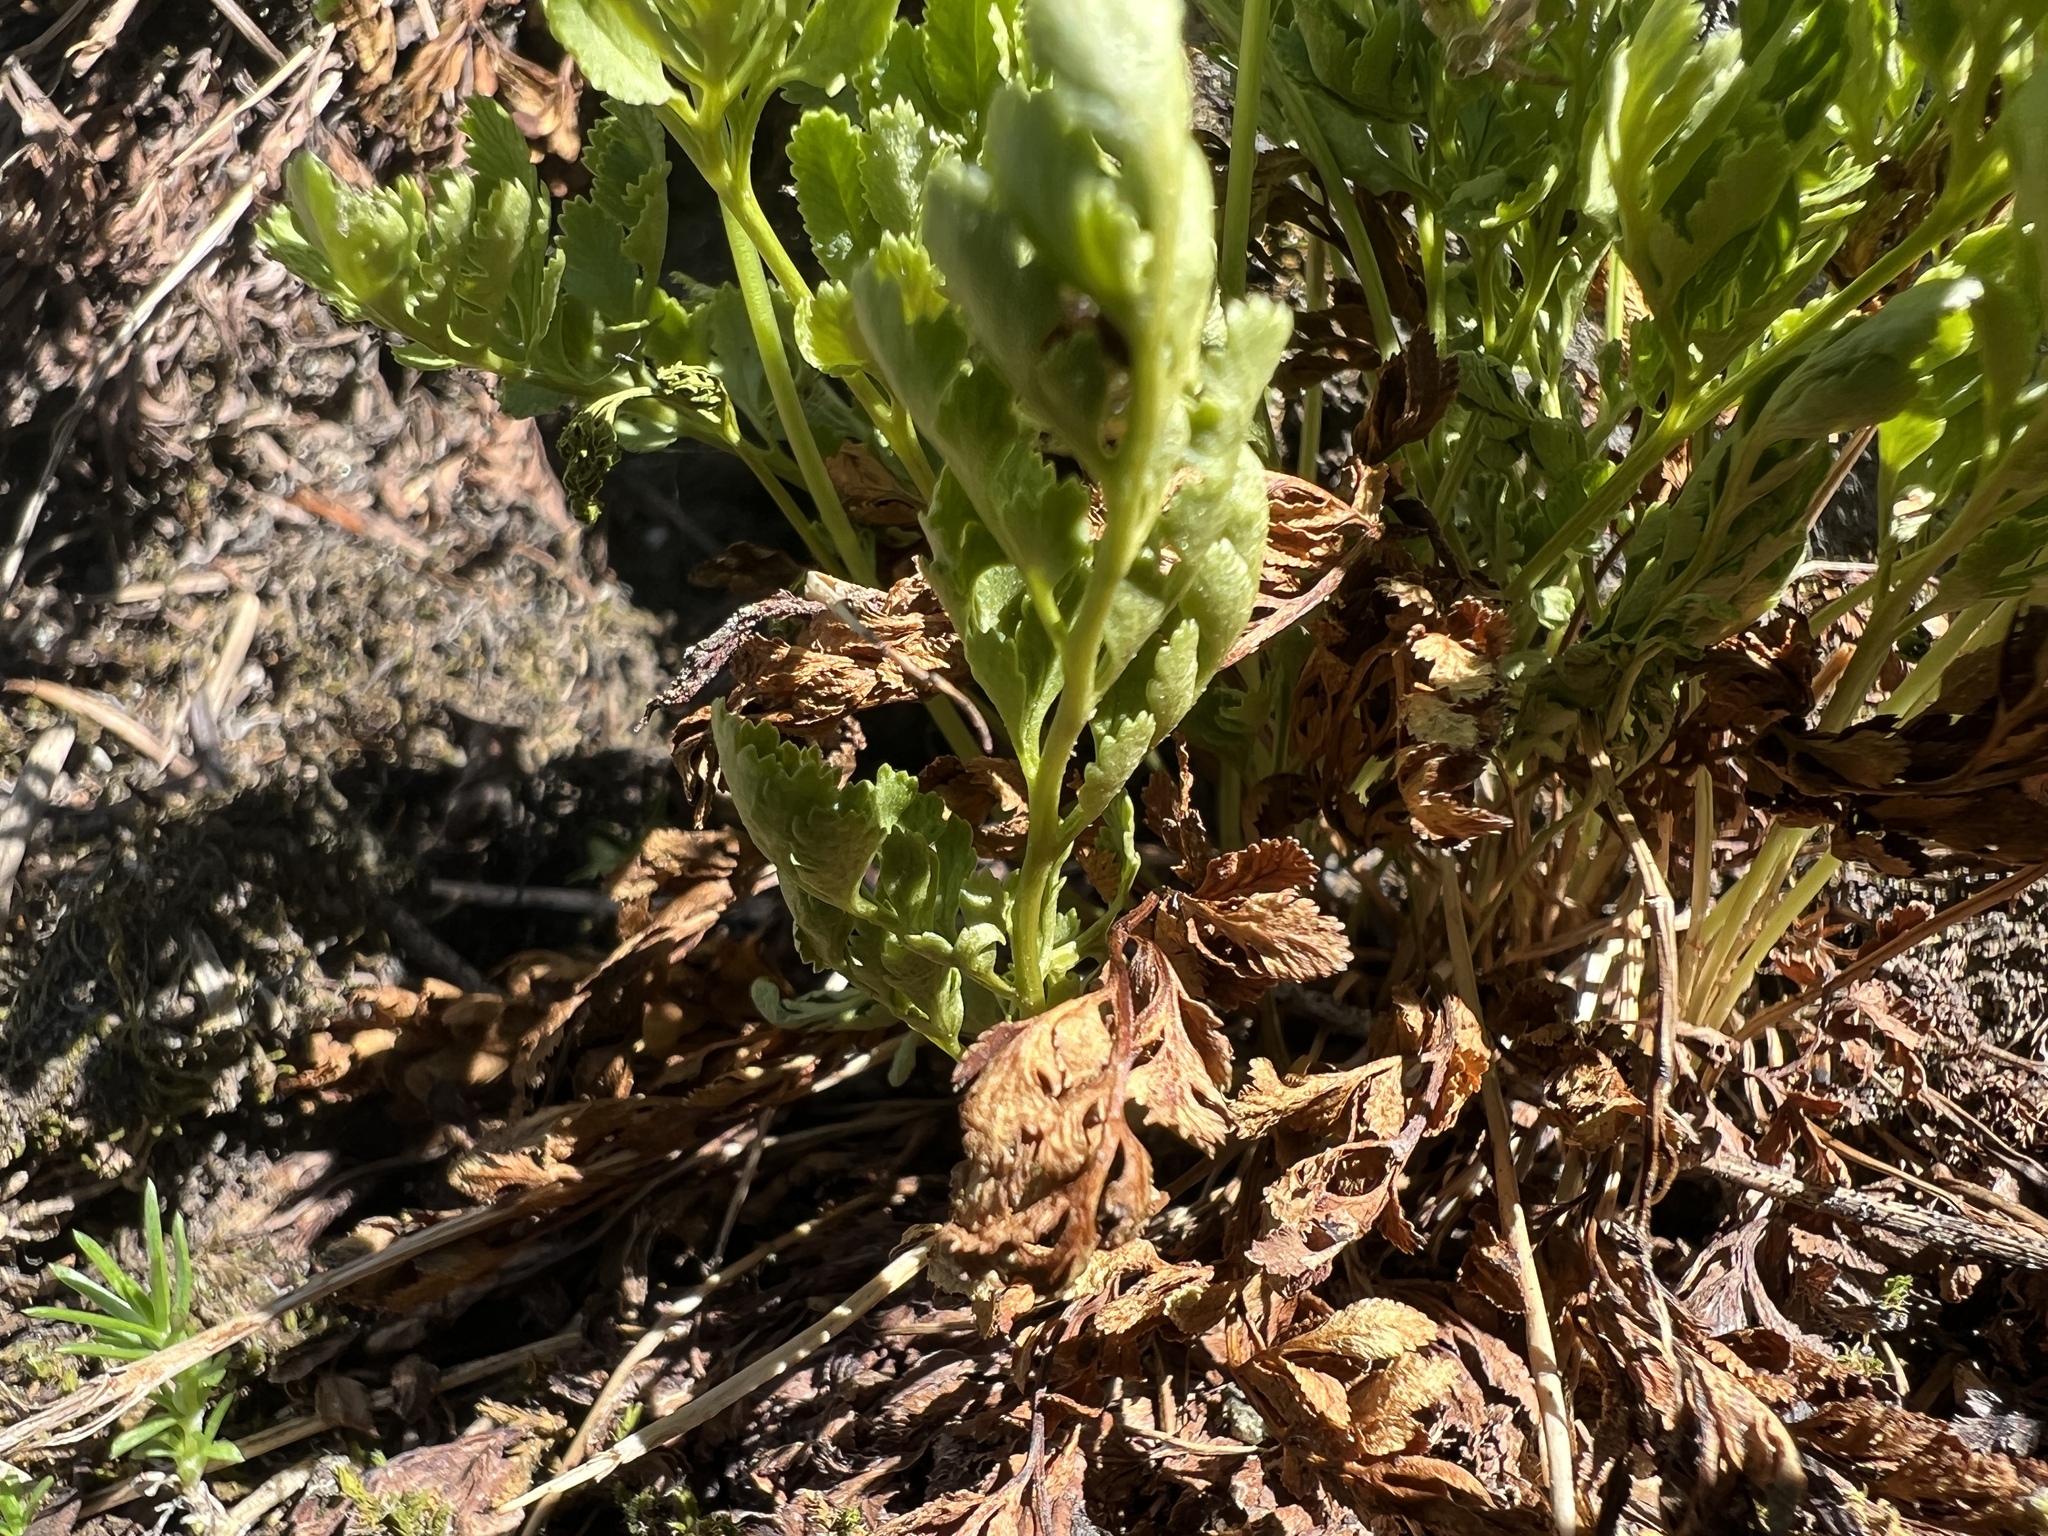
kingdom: Plantae
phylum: Tracheophyta
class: Polypodiopsida
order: Polypodiales
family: Pteridaceae
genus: Cryptogramma
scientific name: Cryptogramma acrostichoides
